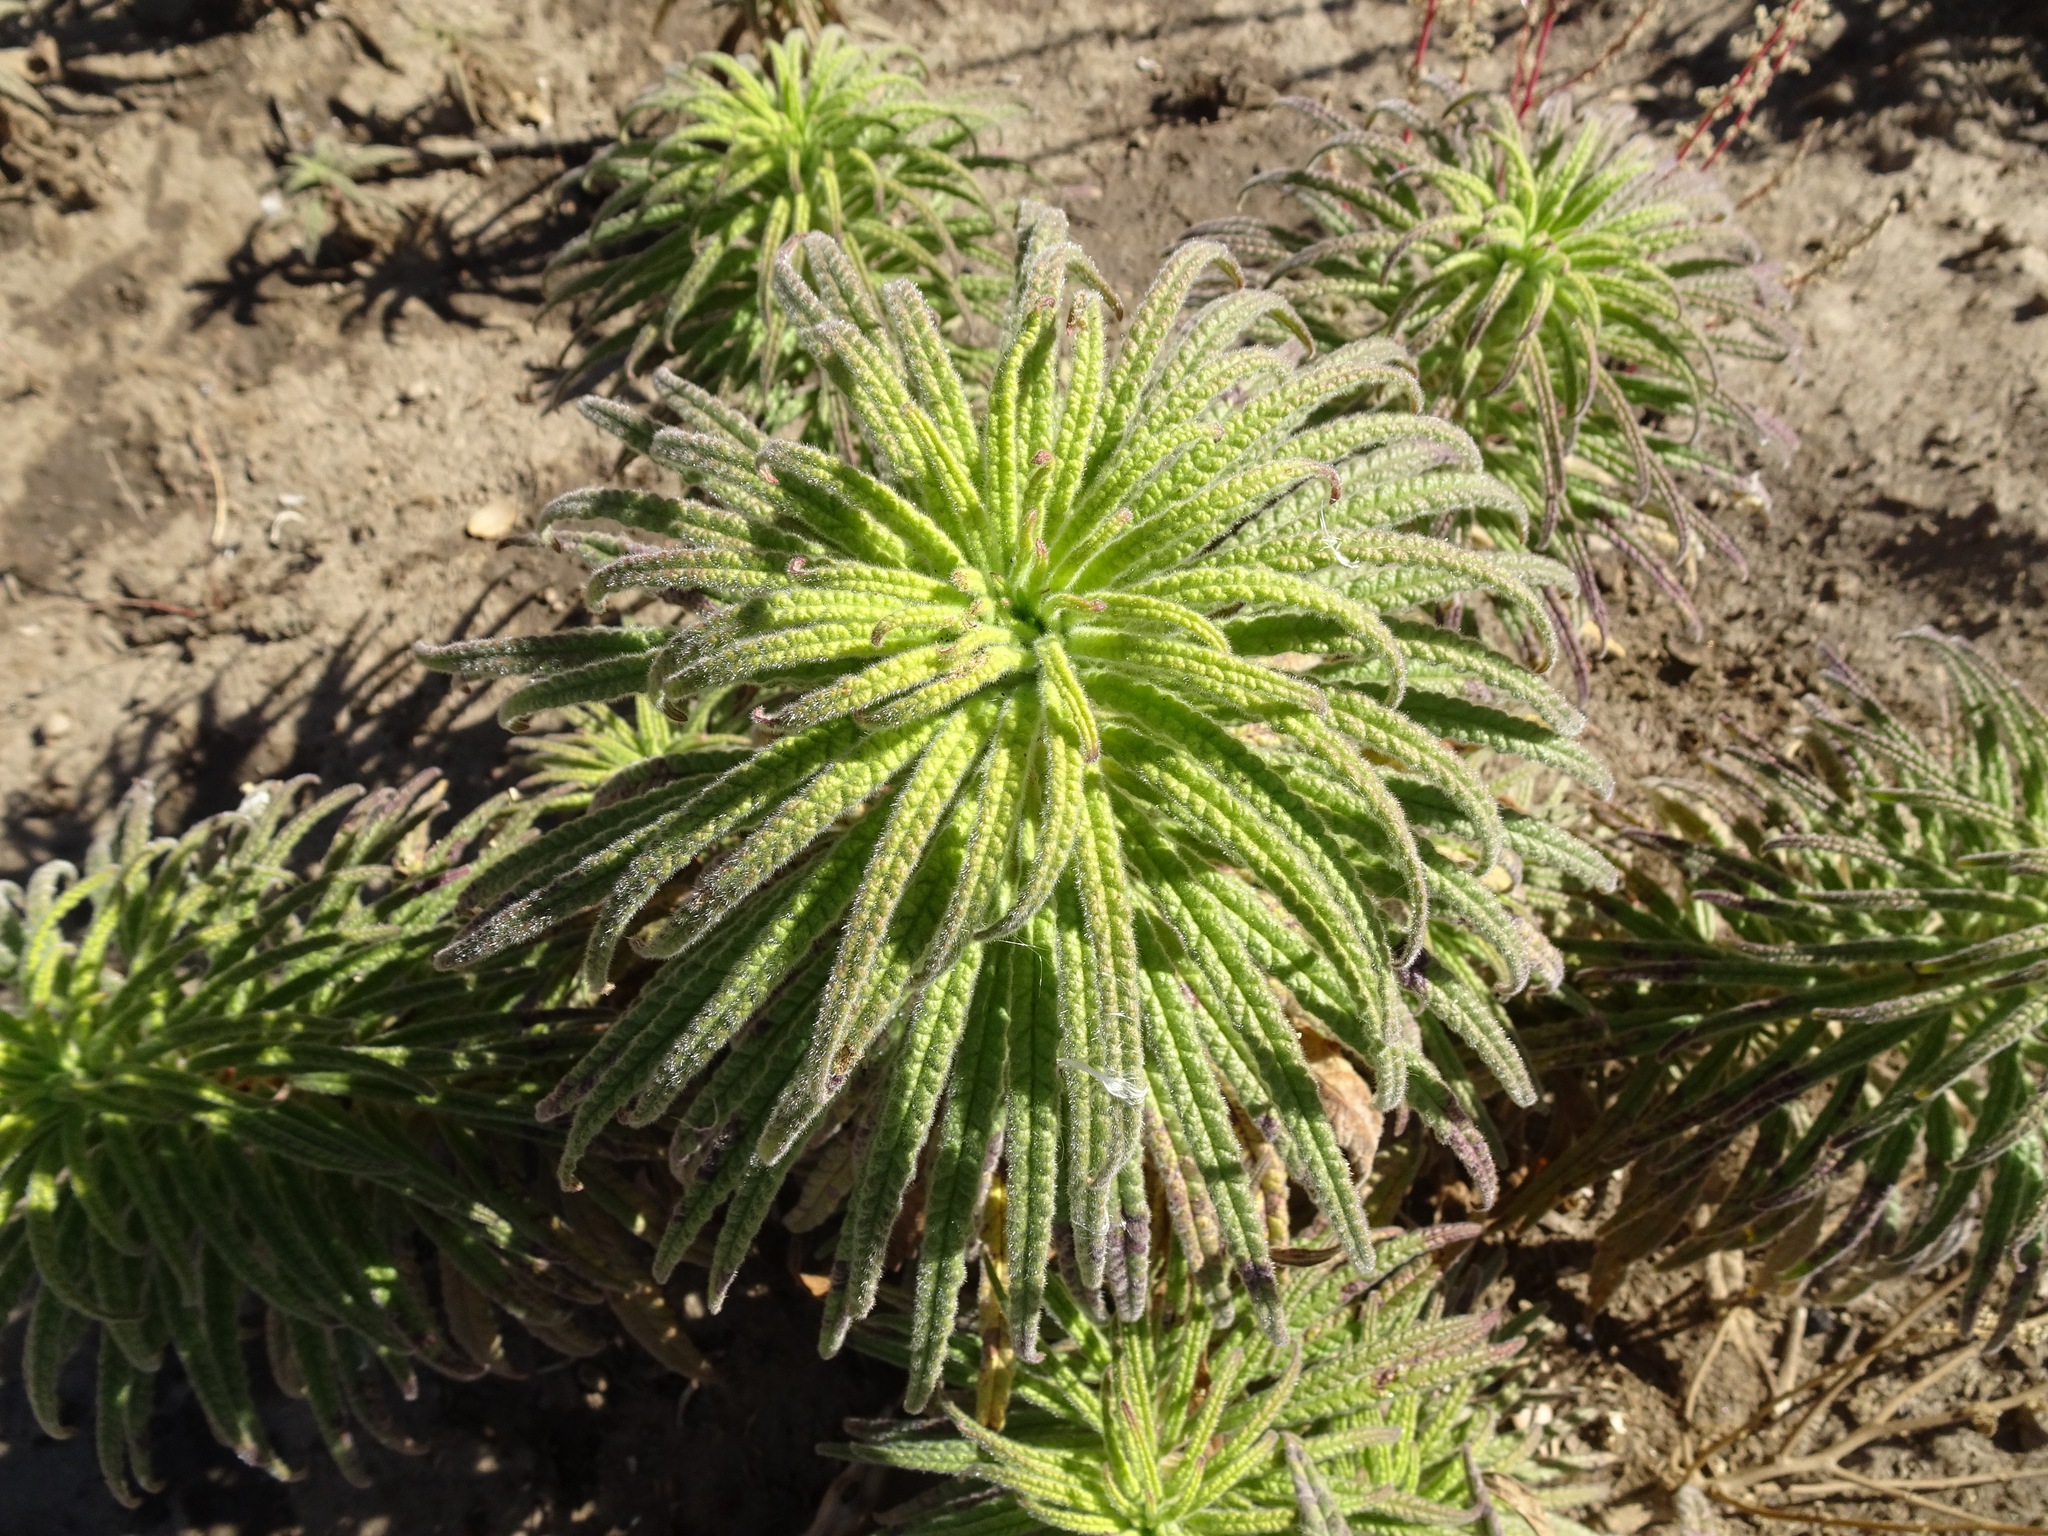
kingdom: Plantae
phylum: Tracheophyta
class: Magnoliopsida
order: Boraginales
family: Namaceae
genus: Turricula
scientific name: Turricula parryi
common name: Poodle-dog-bush
